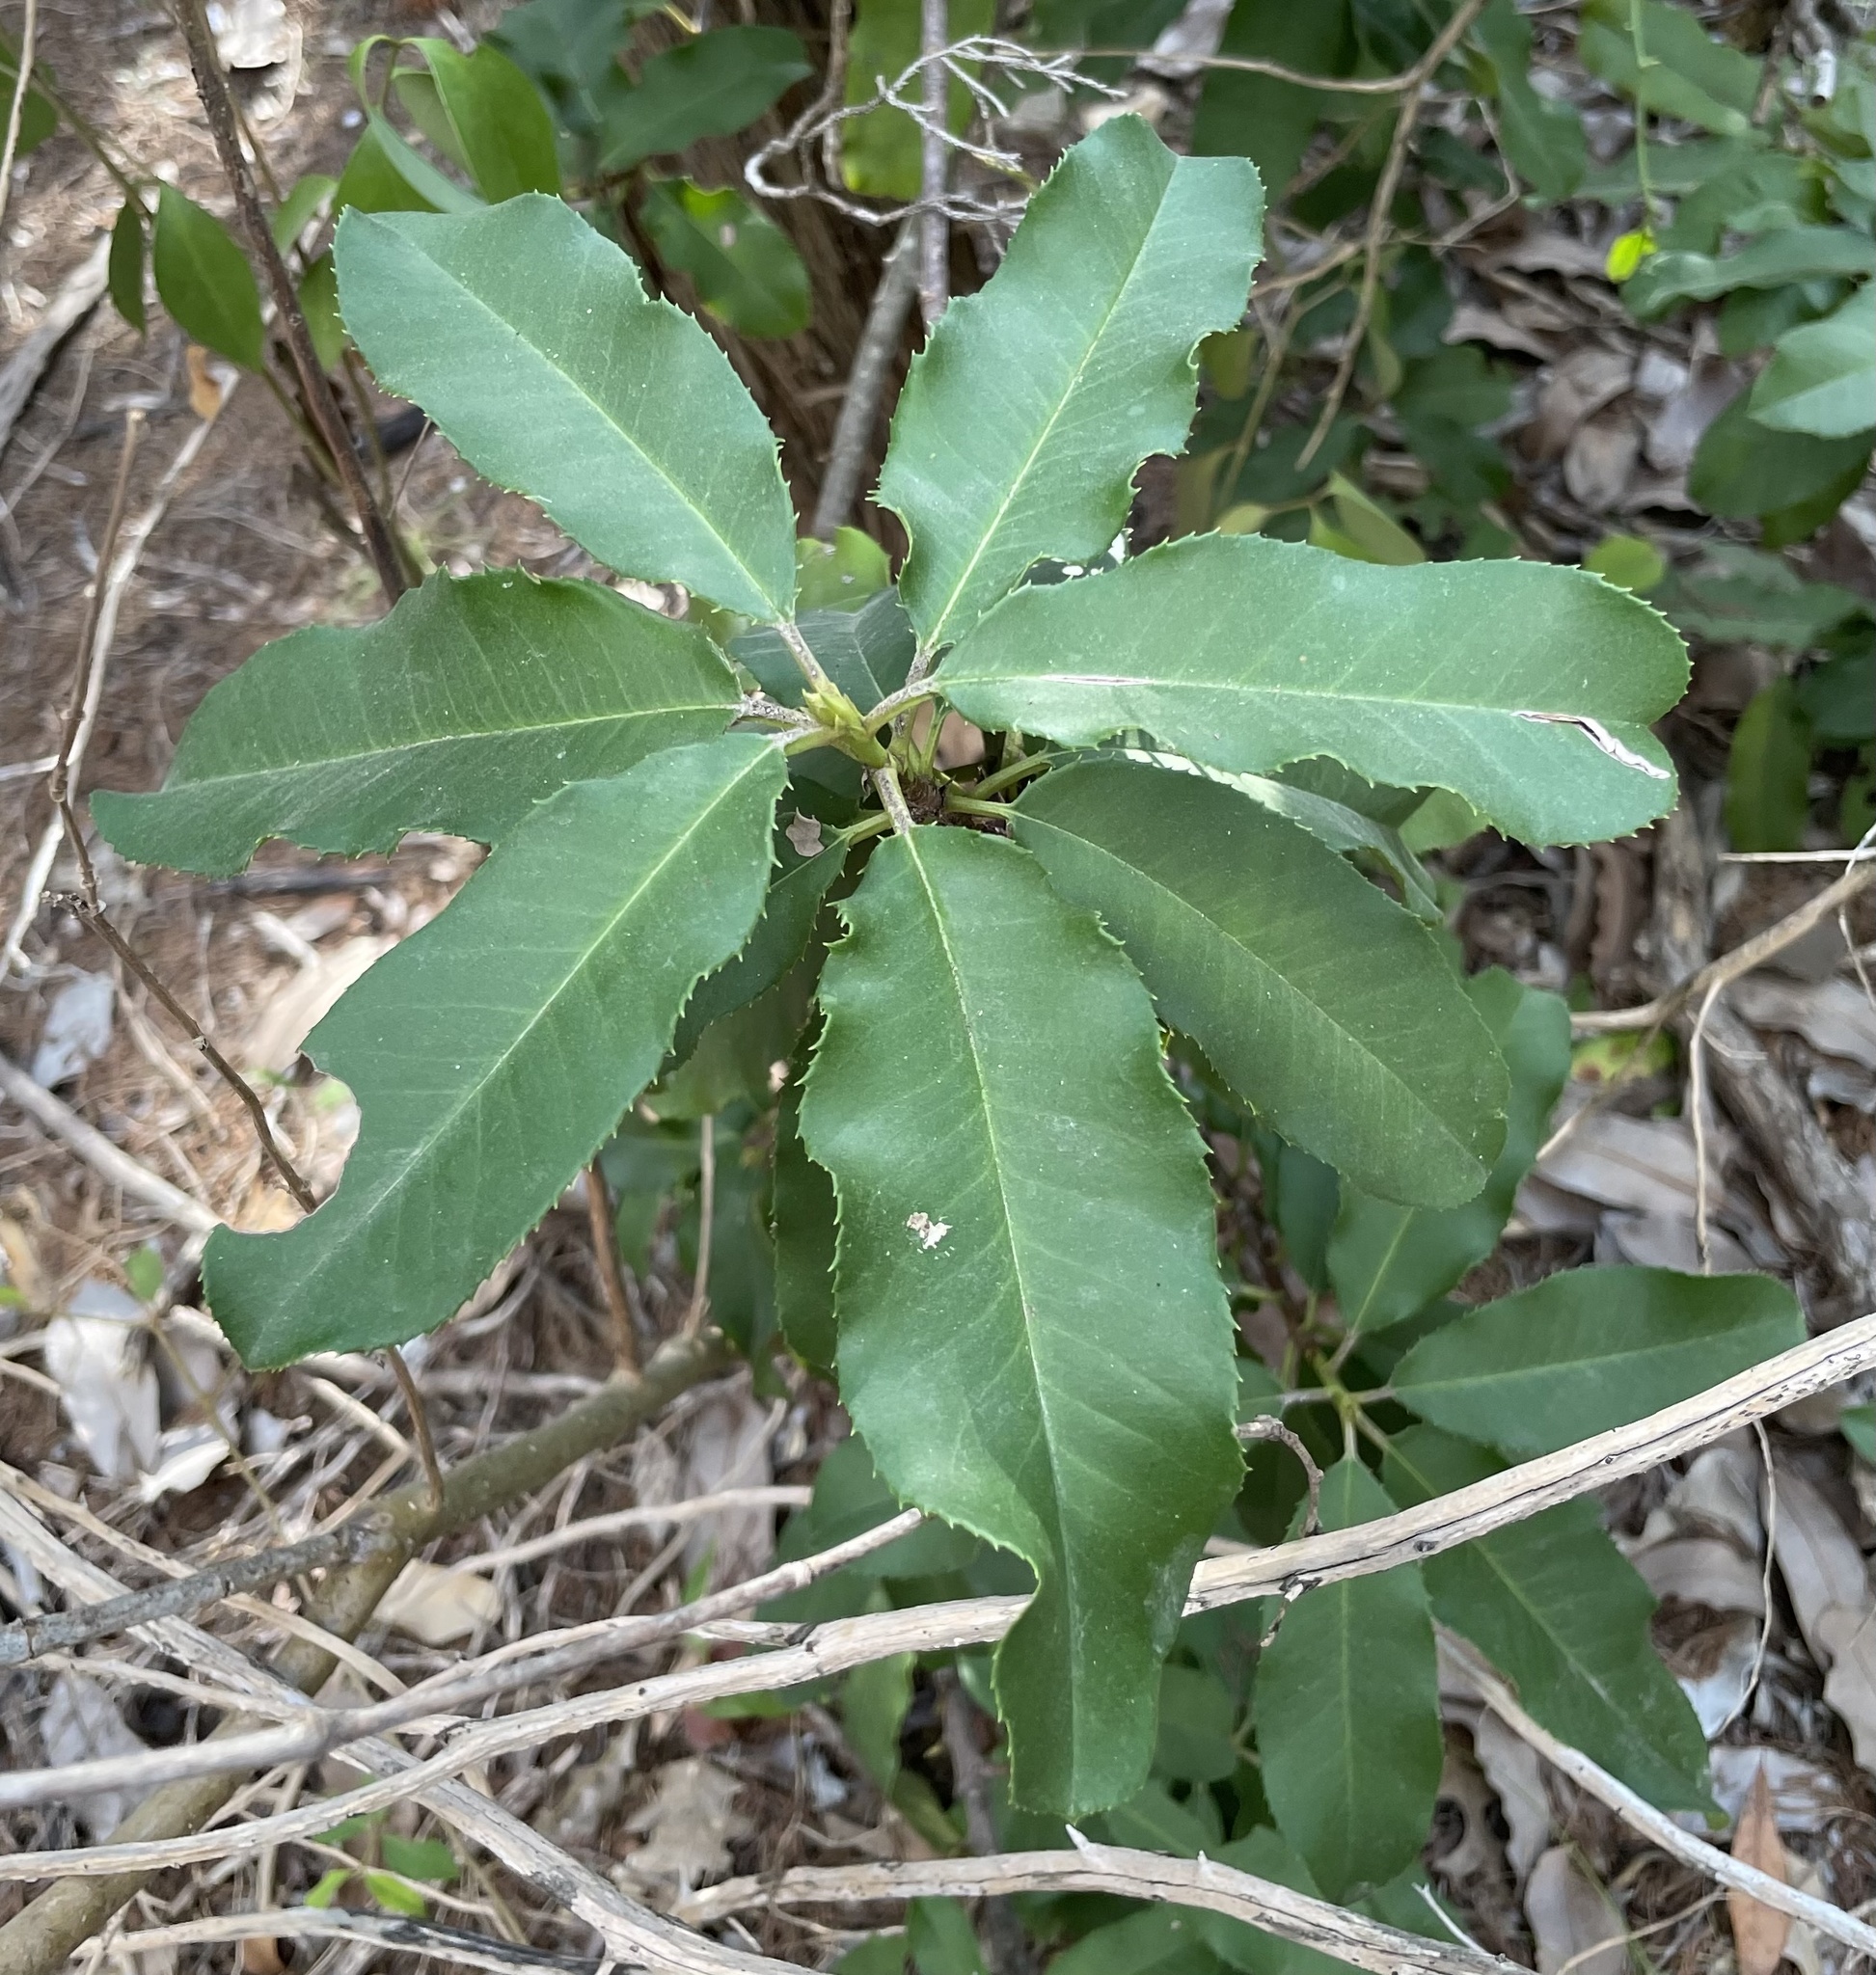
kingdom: Plantae
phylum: Tracheophyta
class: Magnoliopsida
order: Rosales
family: Rosaceae
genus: Photinia
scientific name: Photinia serratifolia
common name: Taiwanese photinia
